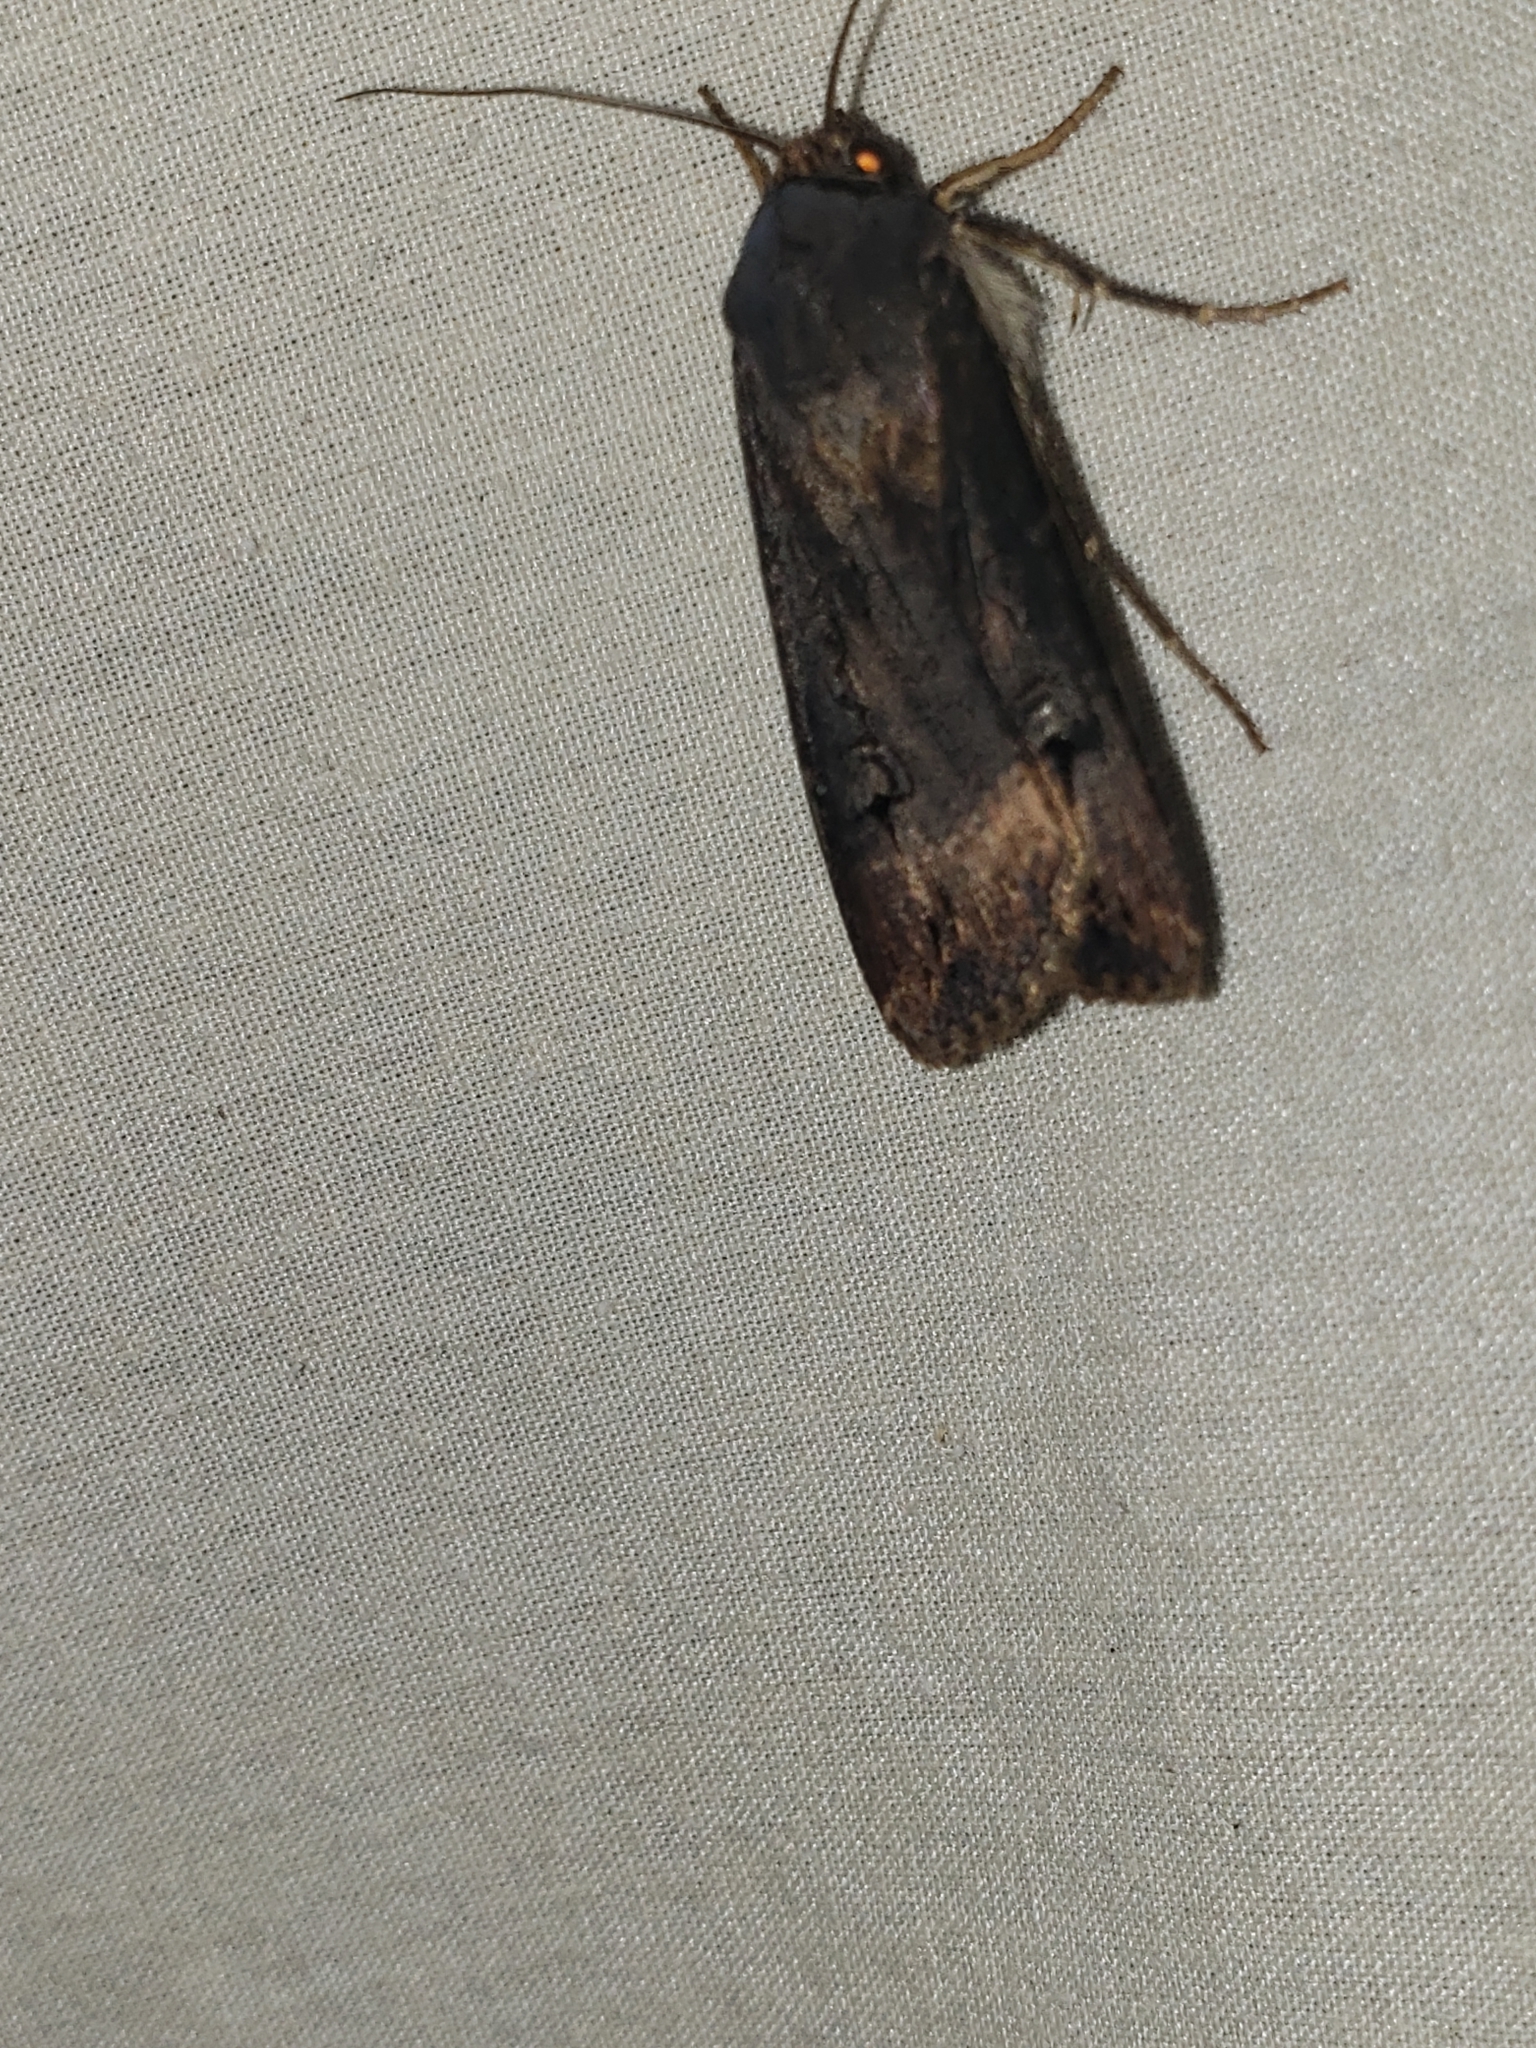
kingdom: Animalia
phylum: Arthropoda
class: Insecta
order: Lepidoptera
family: Noctuidae
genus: Agrotis
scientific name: Agrotis ipsilon
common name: Dark sword-grass
